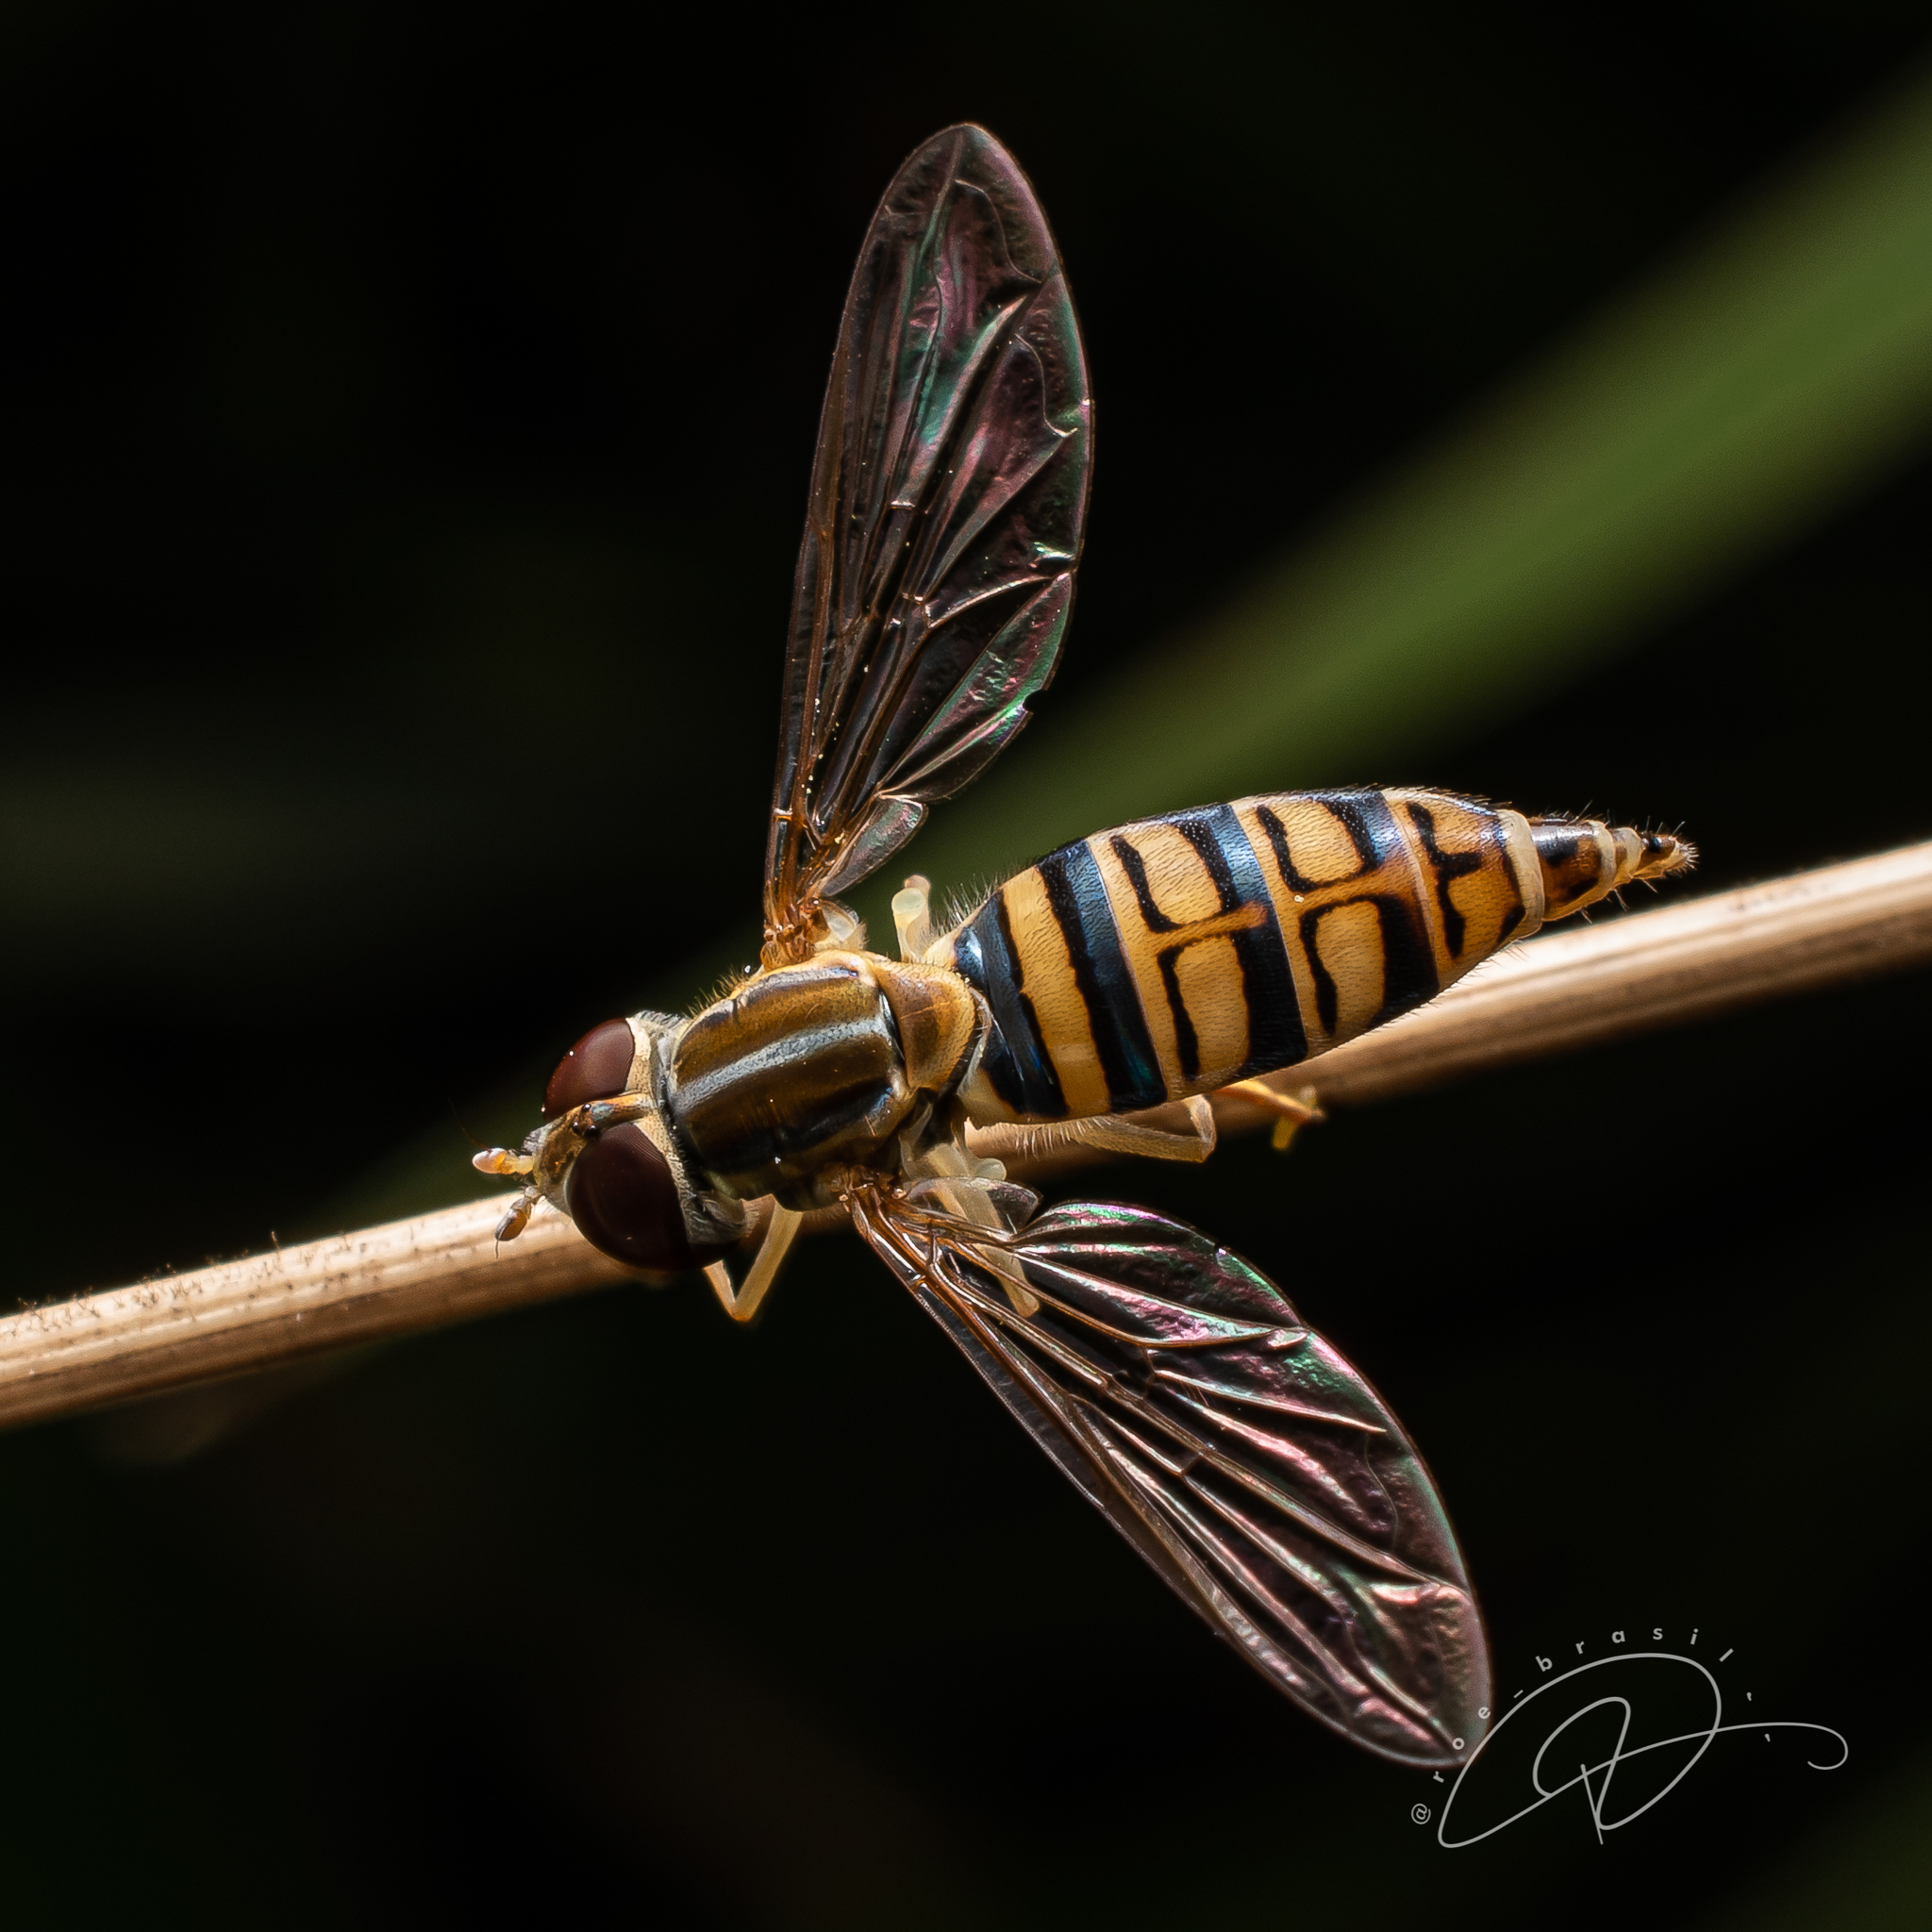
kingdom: Animalia
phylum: Arthropoda
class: Insecta
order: Diptera
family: Syrphidae
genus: Toxomerus
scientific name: Toxomerus politus
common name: Maize calligrapher
